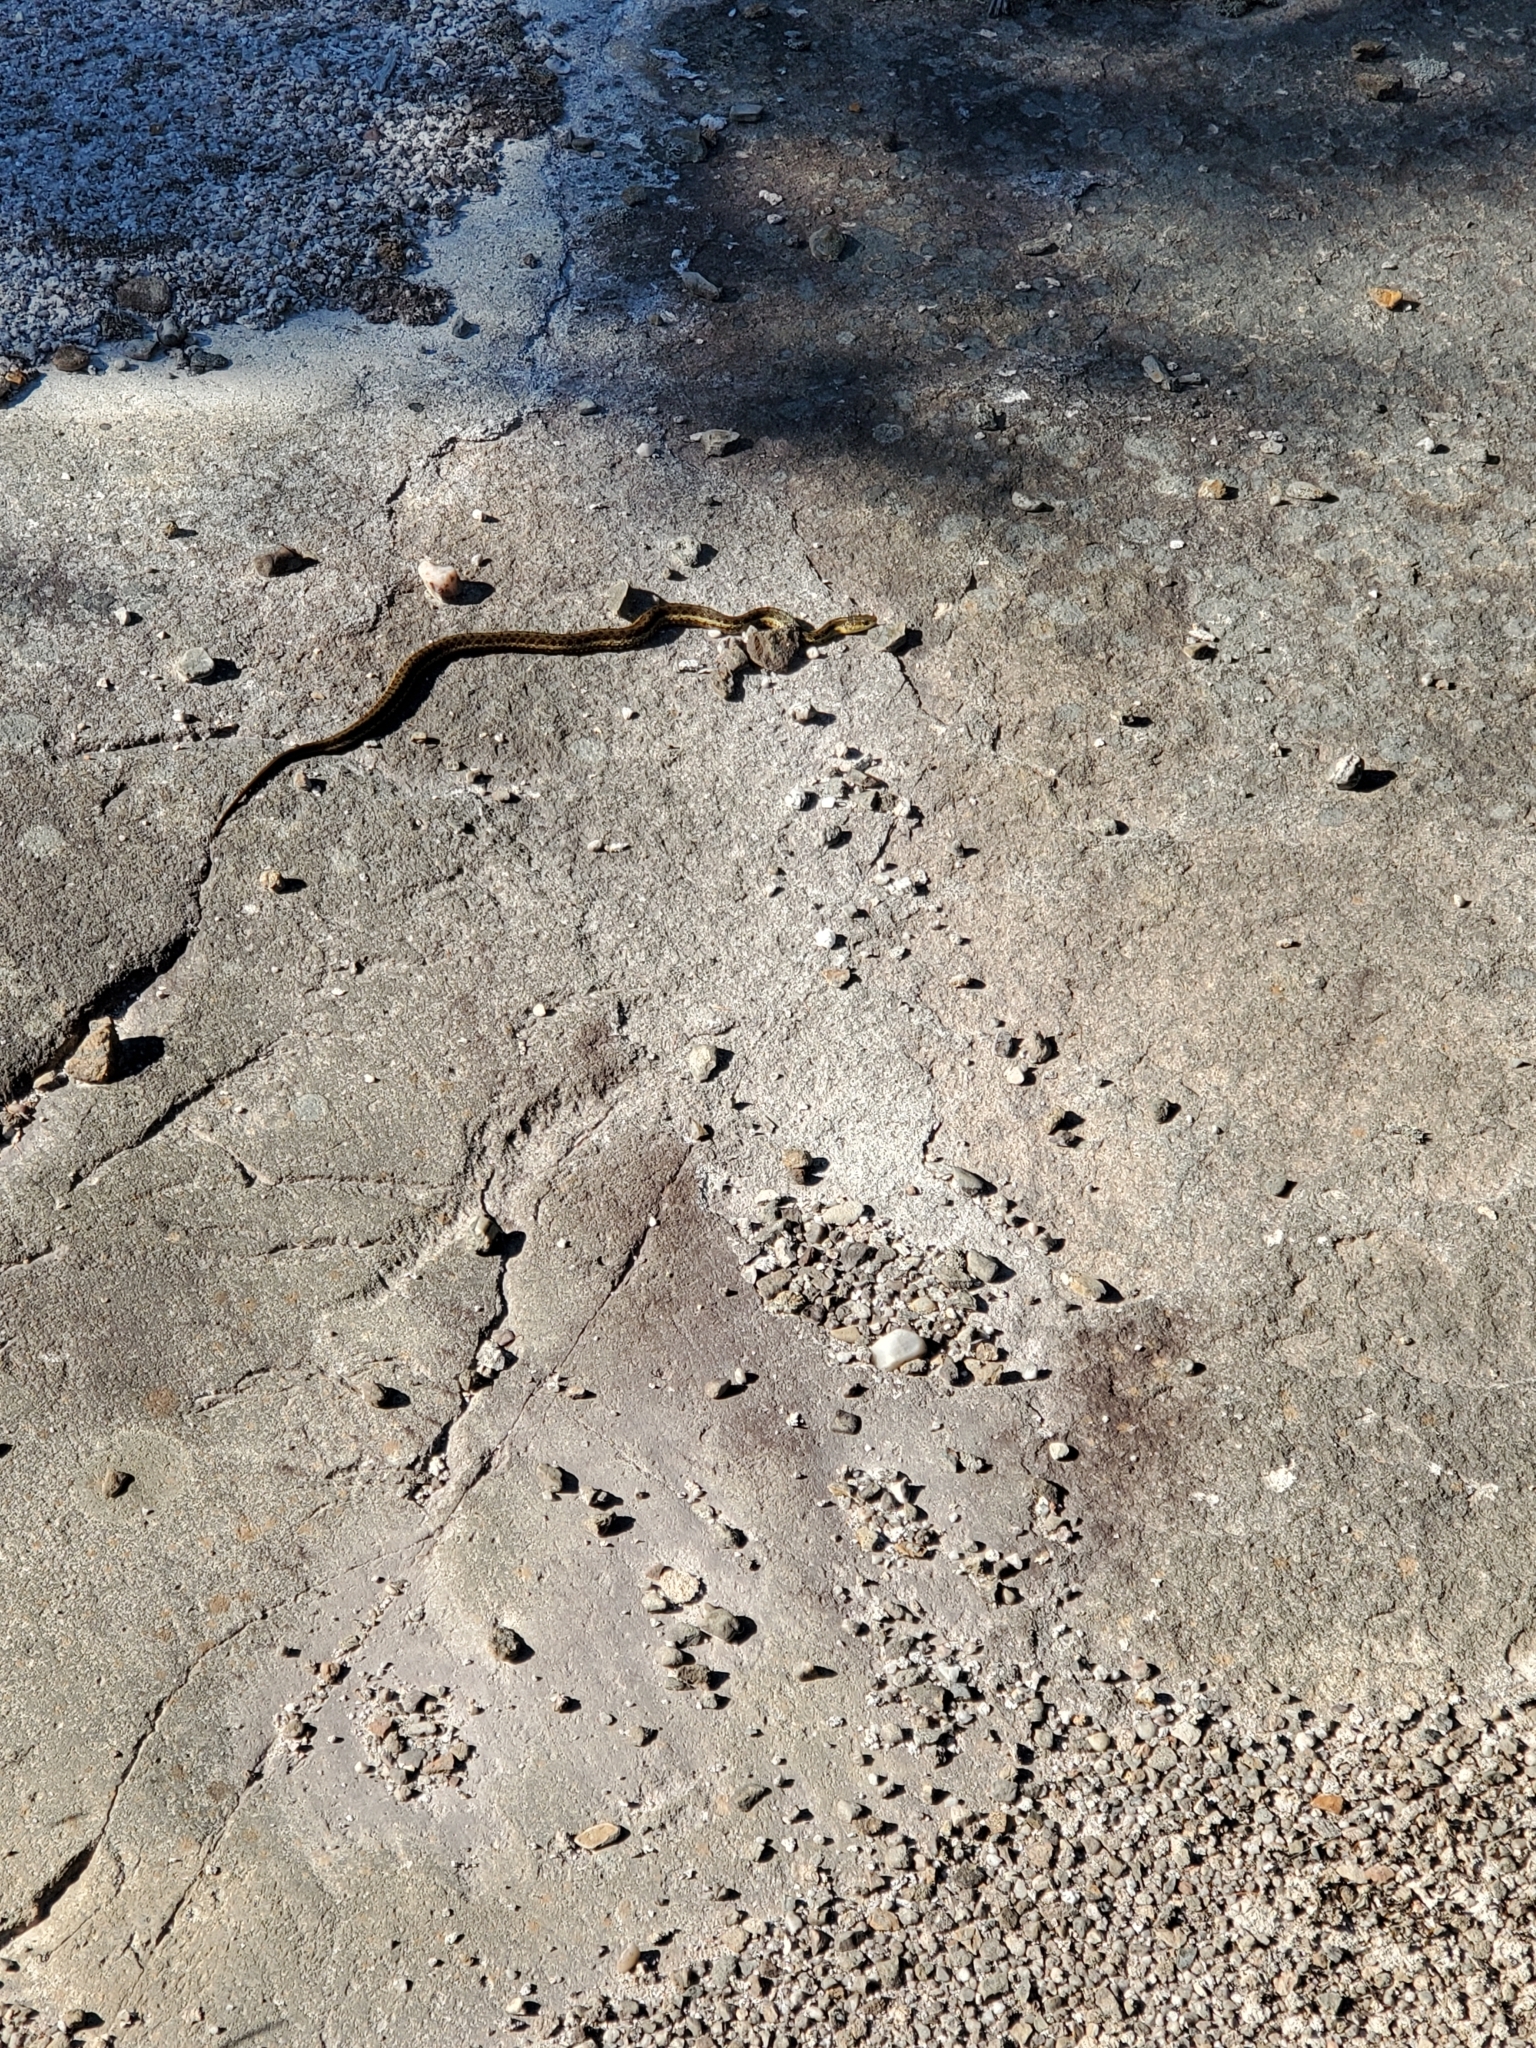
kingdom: Animalia
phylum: Chordata
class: Squamata
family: Colubridae
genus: Thamnophis
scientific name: Thamnophis sirtalis
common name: Common garter snake
